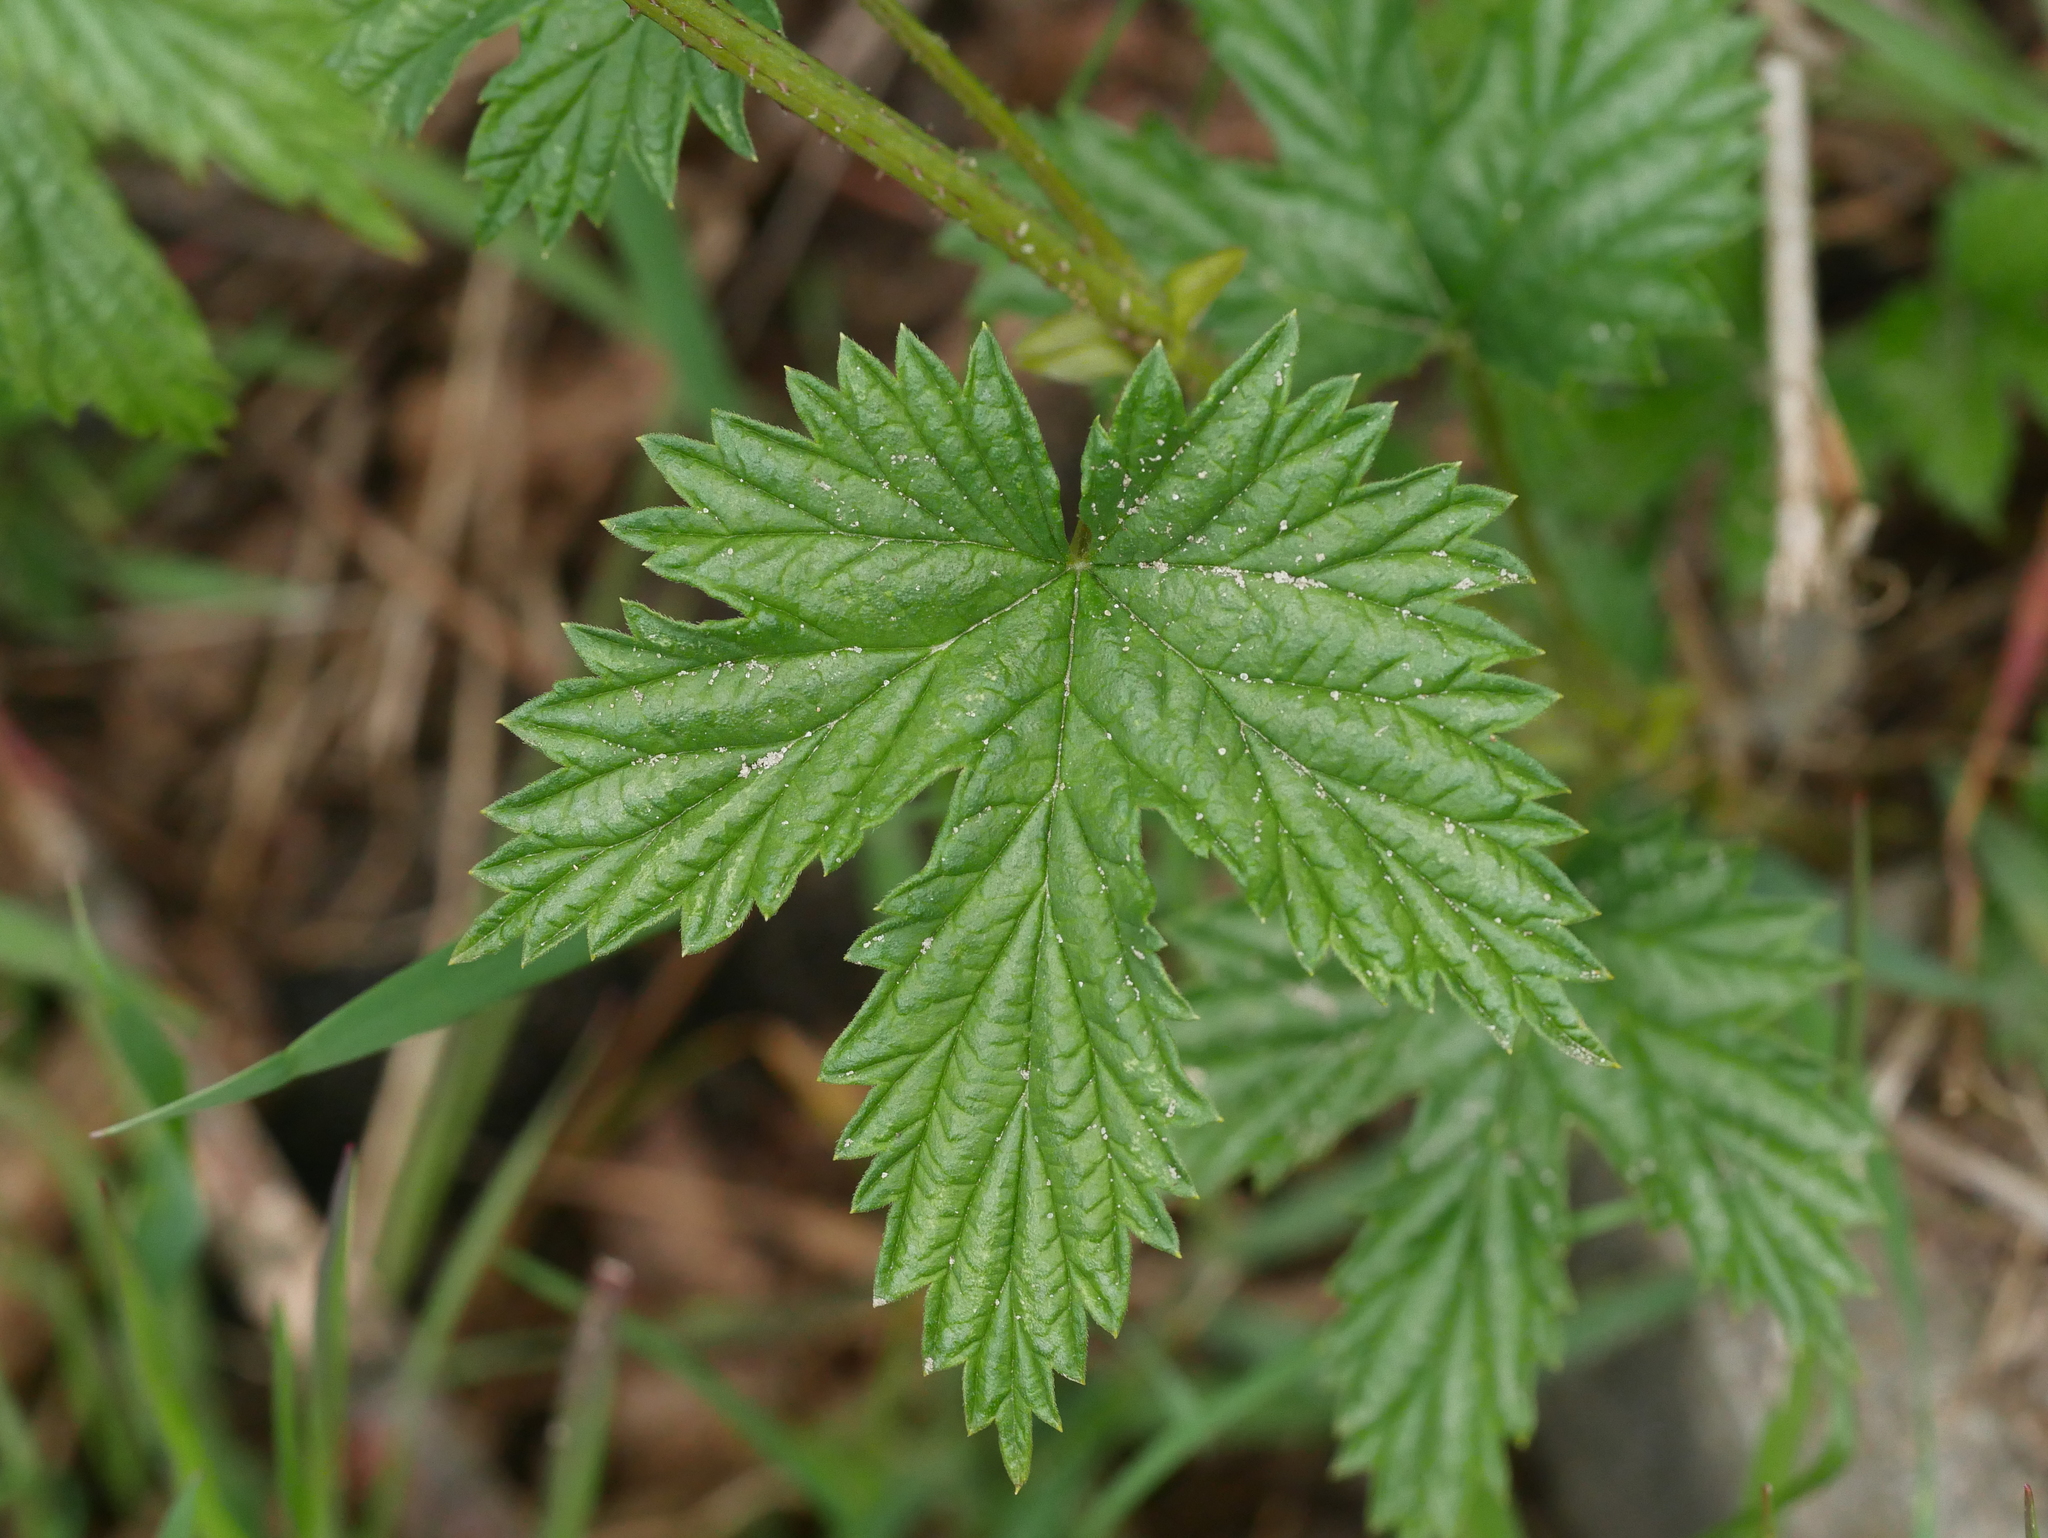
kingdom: Plantae
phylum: Tracheophyta
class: Magnoliopsida
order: Rosales
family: Cannabaceae
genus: Humulus
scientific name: Humulus lupulus
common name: Hop
